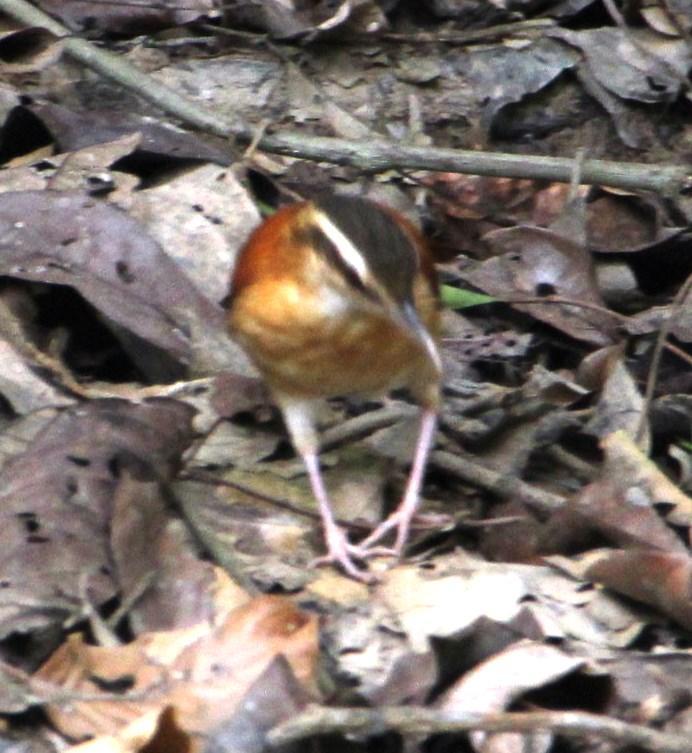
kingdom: Animalia
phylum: Chordata
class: Aves
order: Passeriformes
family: Furnariidae
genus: Furnarius
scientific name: Furnarius leucopus
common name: Pale-legged hornero
